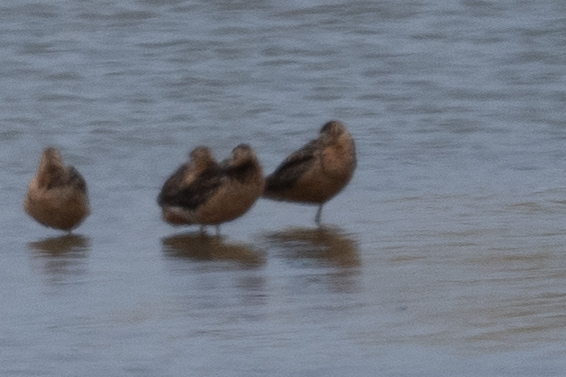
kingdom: Animalia
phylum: Chordata
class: Aves
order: Charadriiformes
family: Scolopacidae
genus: Limnodromus
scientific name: Limnodromus scolopaceus
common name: Long-billed dowitcher
